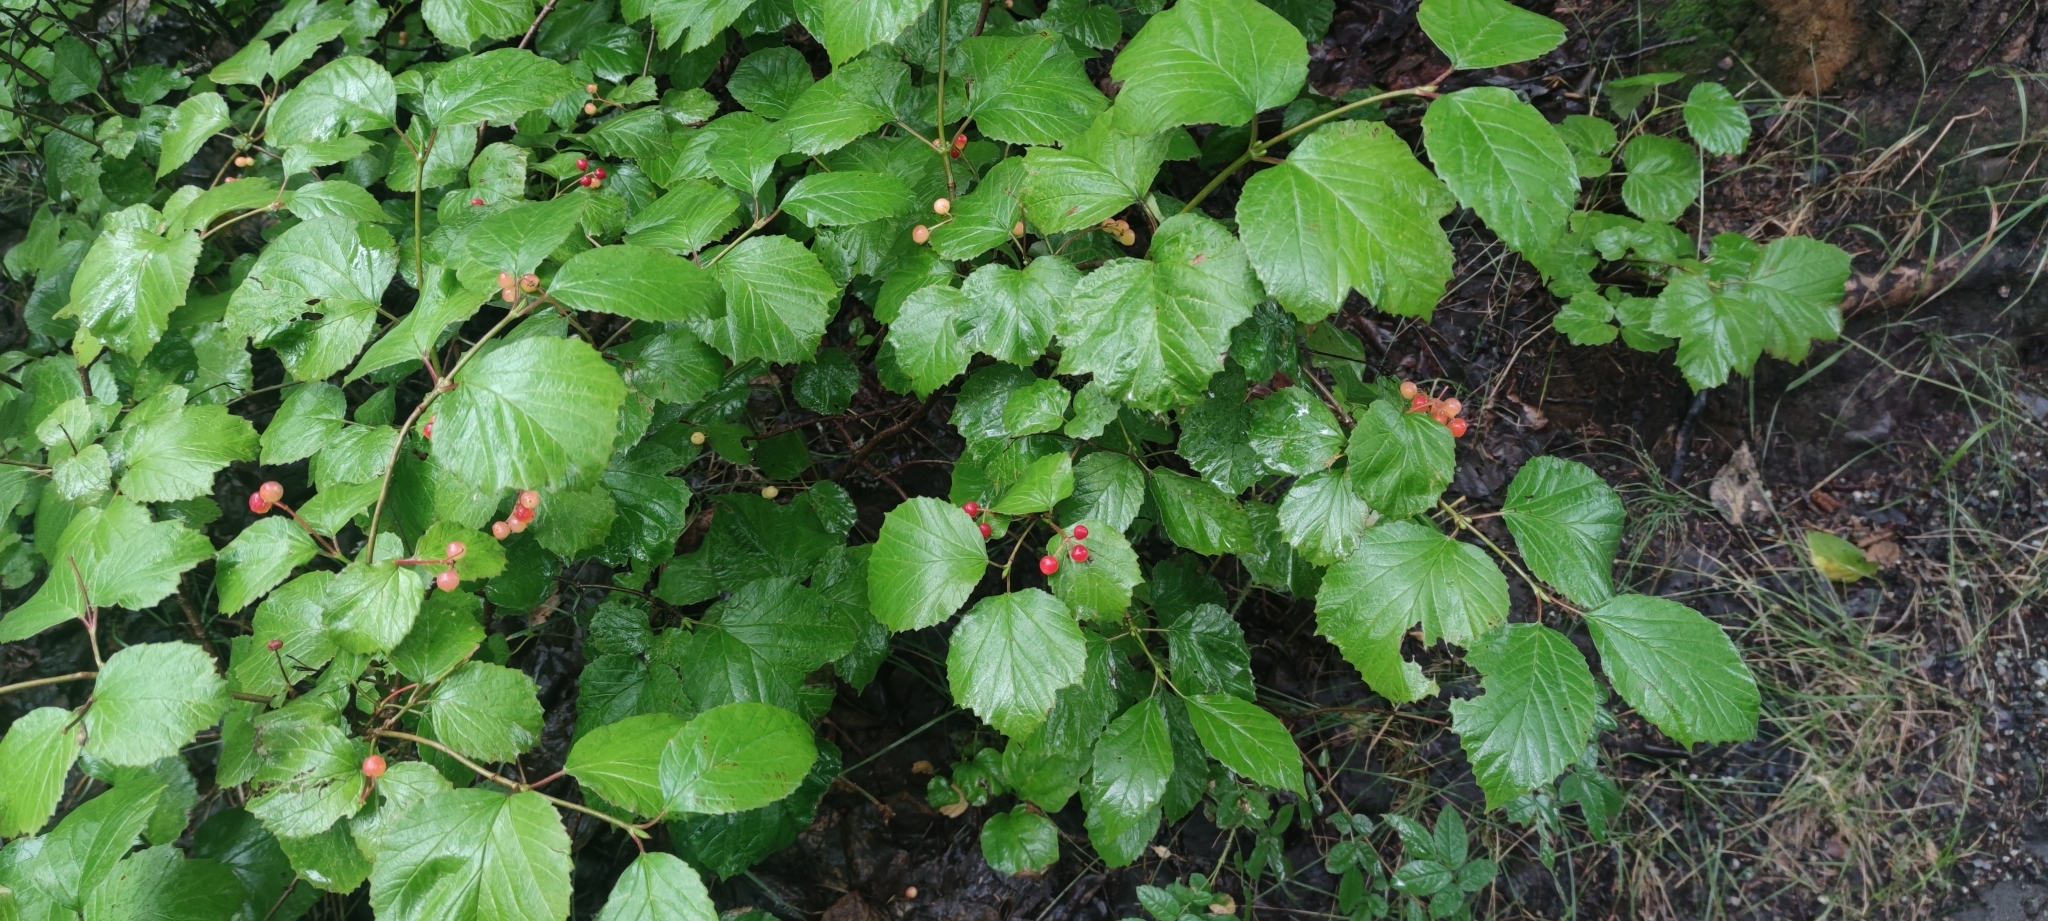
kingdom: Plantae
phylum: Tracheophyta
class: Magnoliopsida
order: Dipsacales
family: Viburnaceae
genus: Viburnum
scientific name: Viburnum edule
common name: Mooseberry
